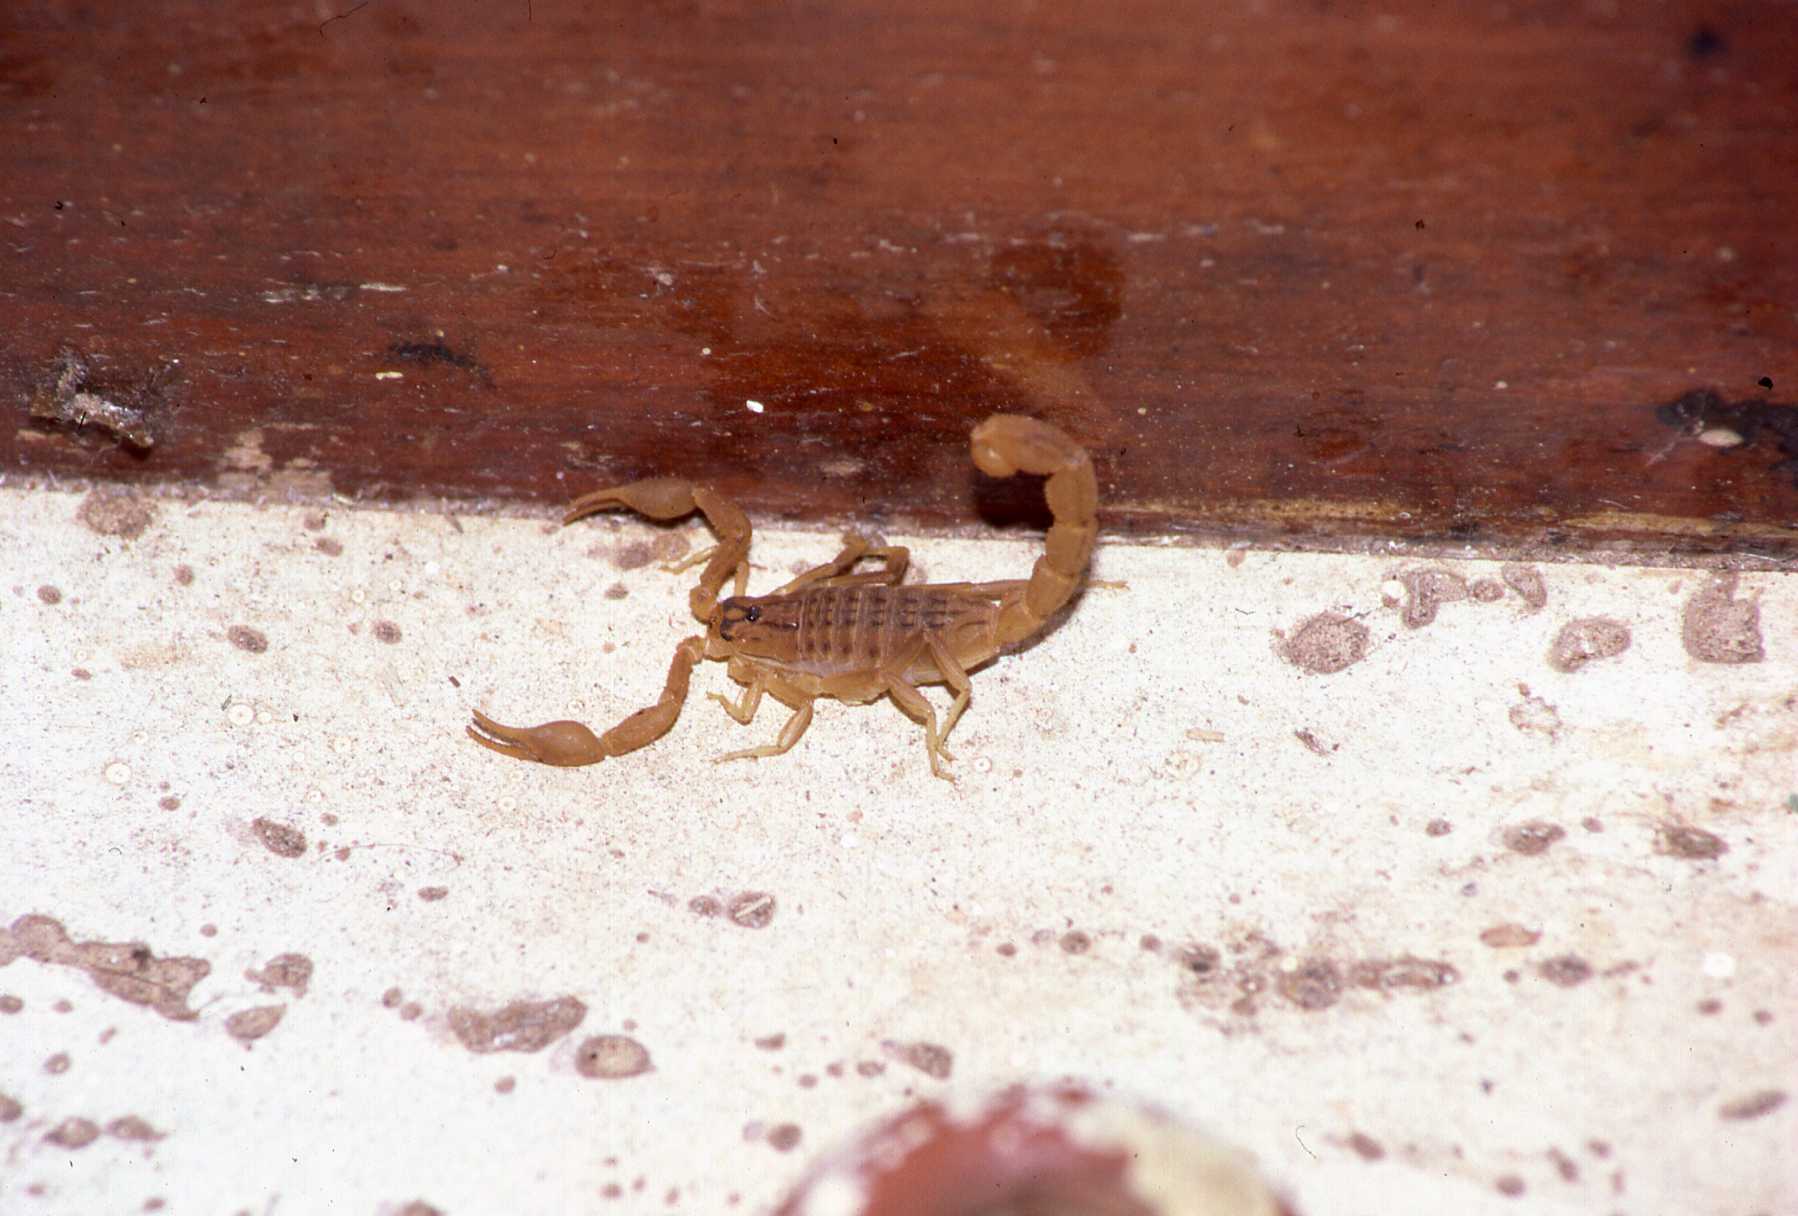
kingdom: Animalia
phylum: Arthropoda
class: Arachnida
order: Scorpiones
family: Buthidae
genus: Hottentotta
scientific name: Hottentotta
